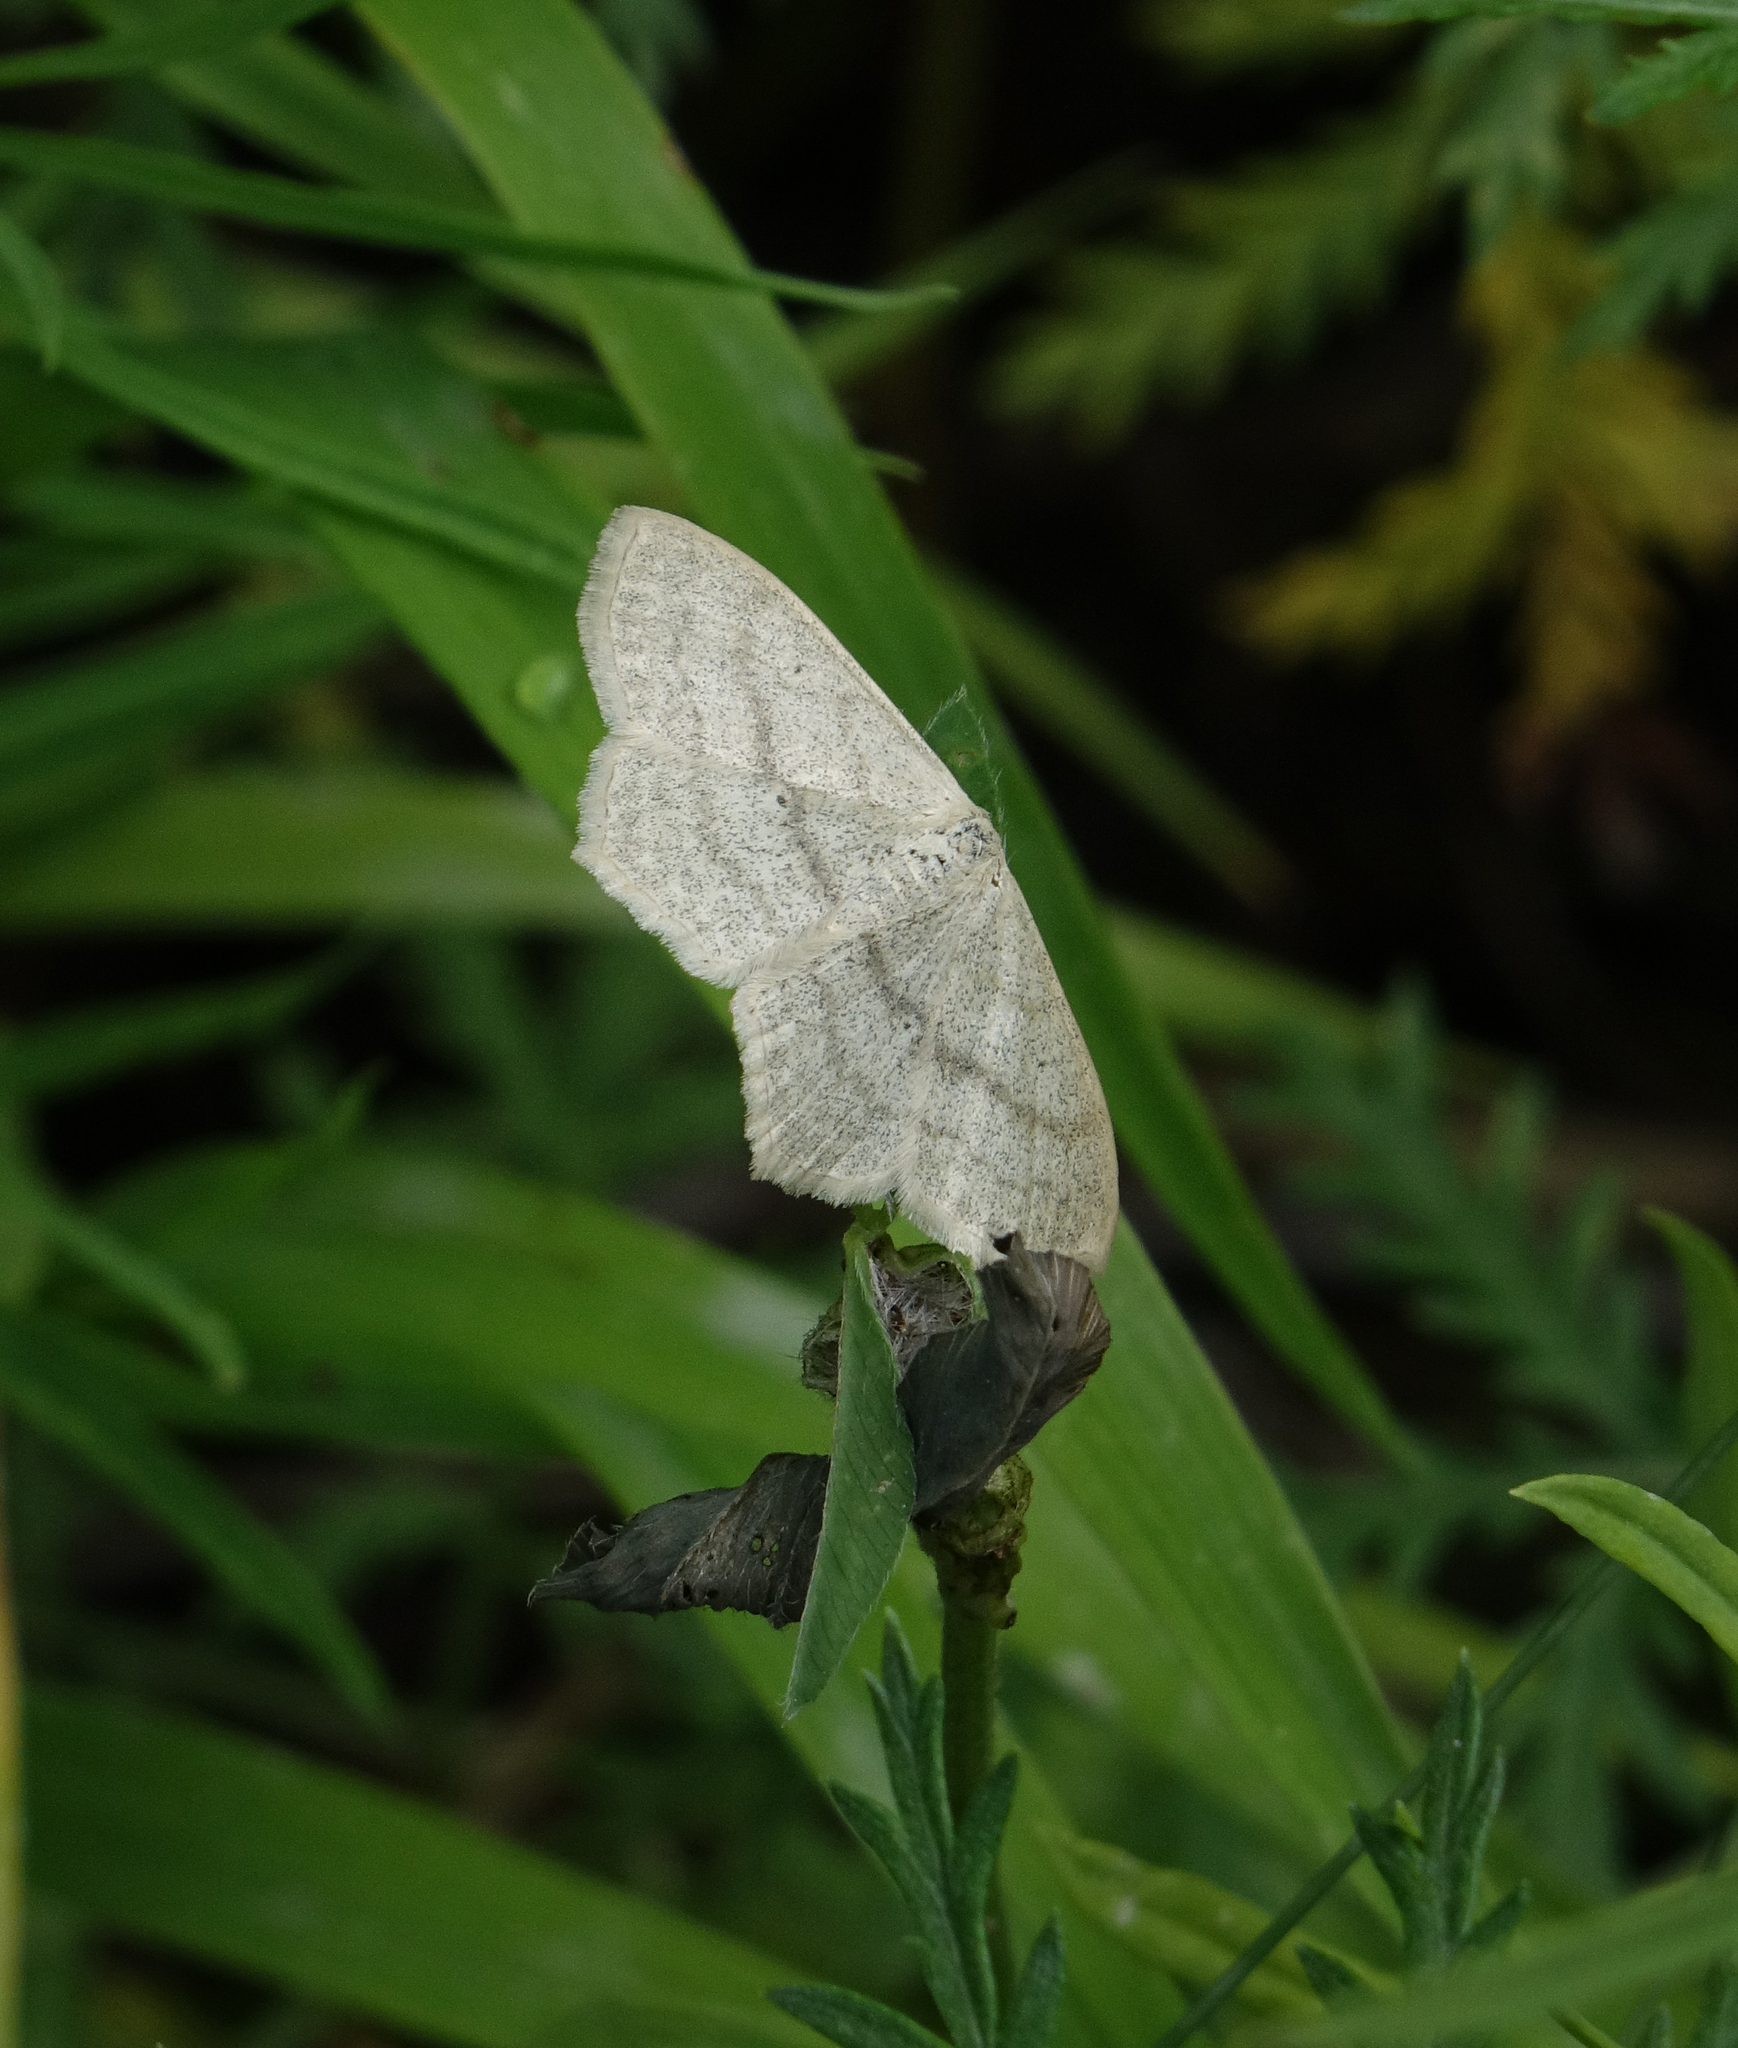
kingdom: Animalia
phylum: Arthropoda
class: Insecta
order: Lepidoptera
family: Geometridae
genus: Scopula
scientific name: Scopula nigropunctata
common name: Sub-angled wave
